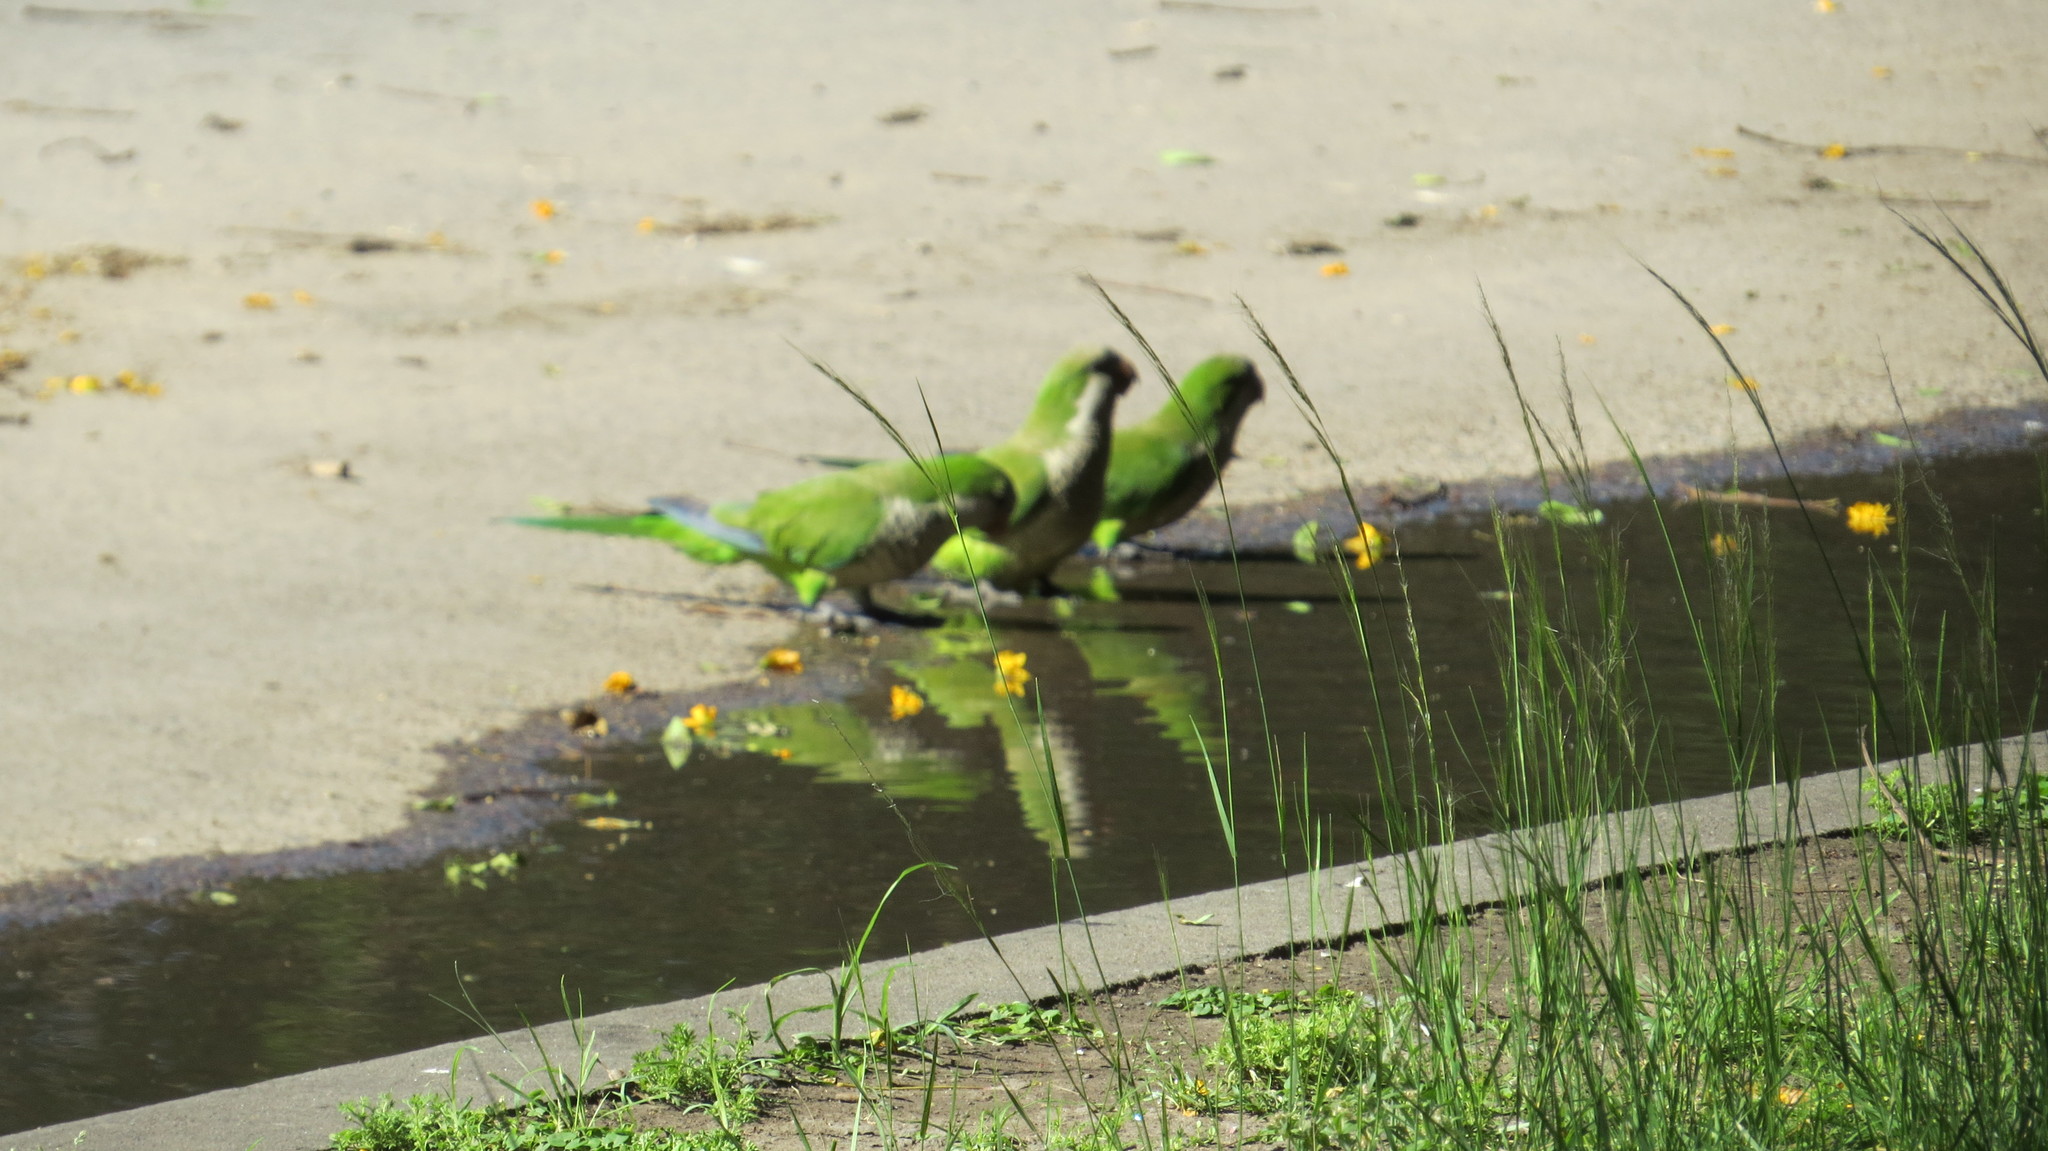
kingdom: Animalia
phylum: Chordata
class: Aves
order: Psittaciformes
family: Psittacidae
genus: Myiopsitta
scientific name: Myiopsitta monachus
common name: Monk parakeet
